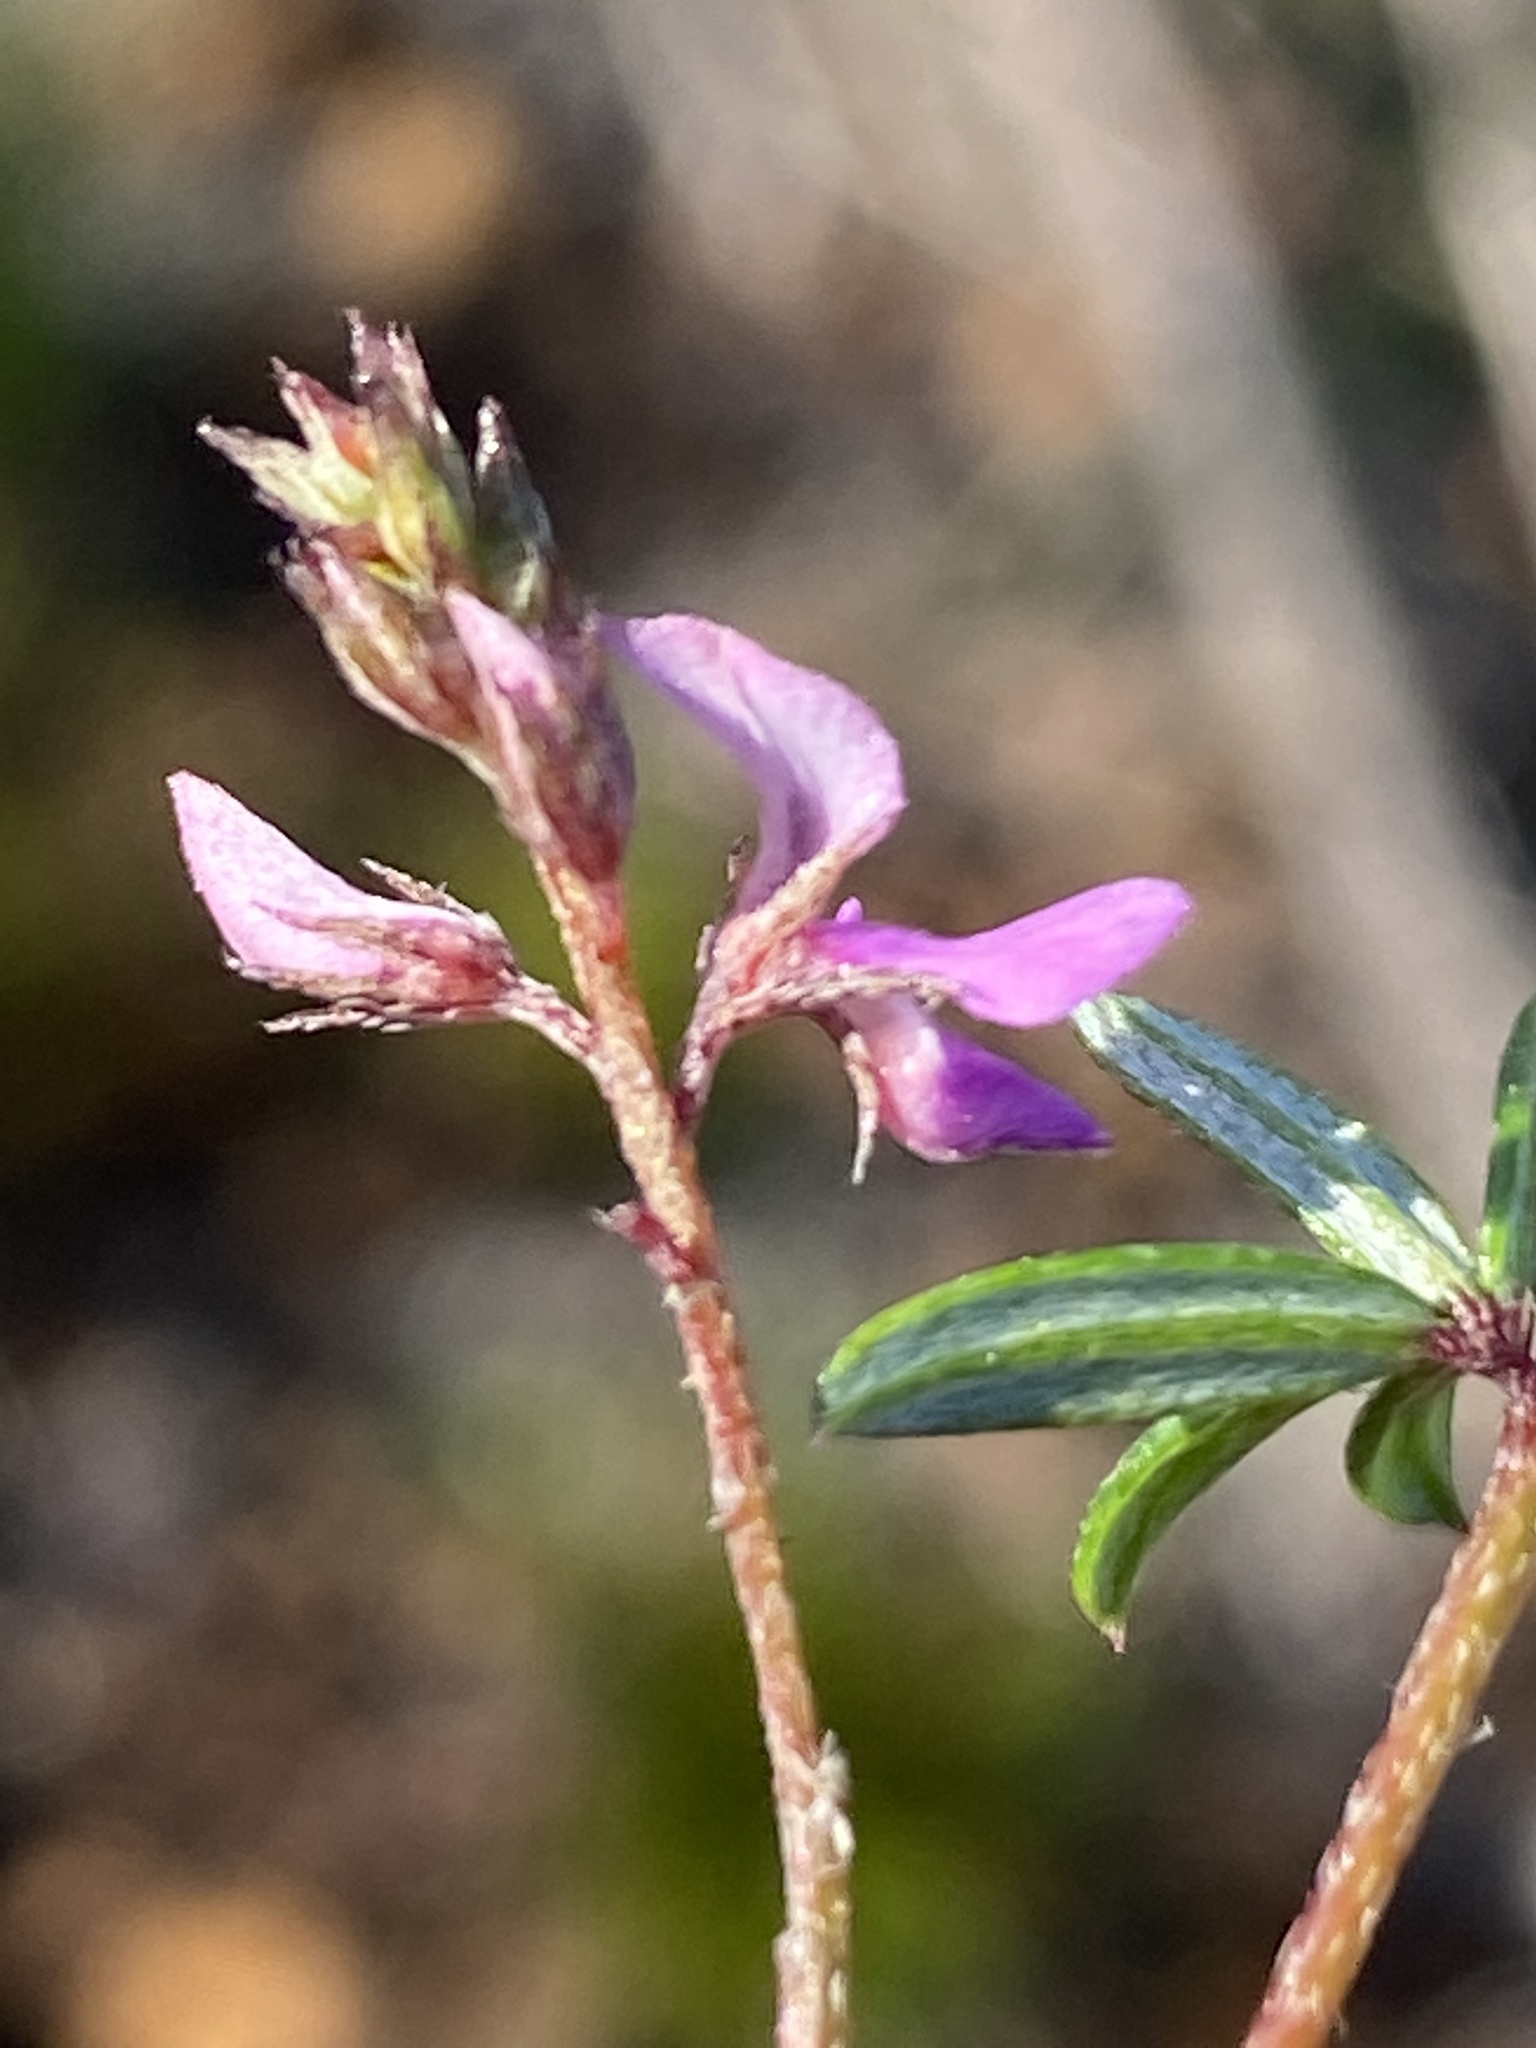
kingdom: Plantae
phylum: Tracheophyta
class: Magnoliopsida
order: Fabales
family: Fabaceae
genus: Indigofera
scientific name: Indigofera angustifolia
